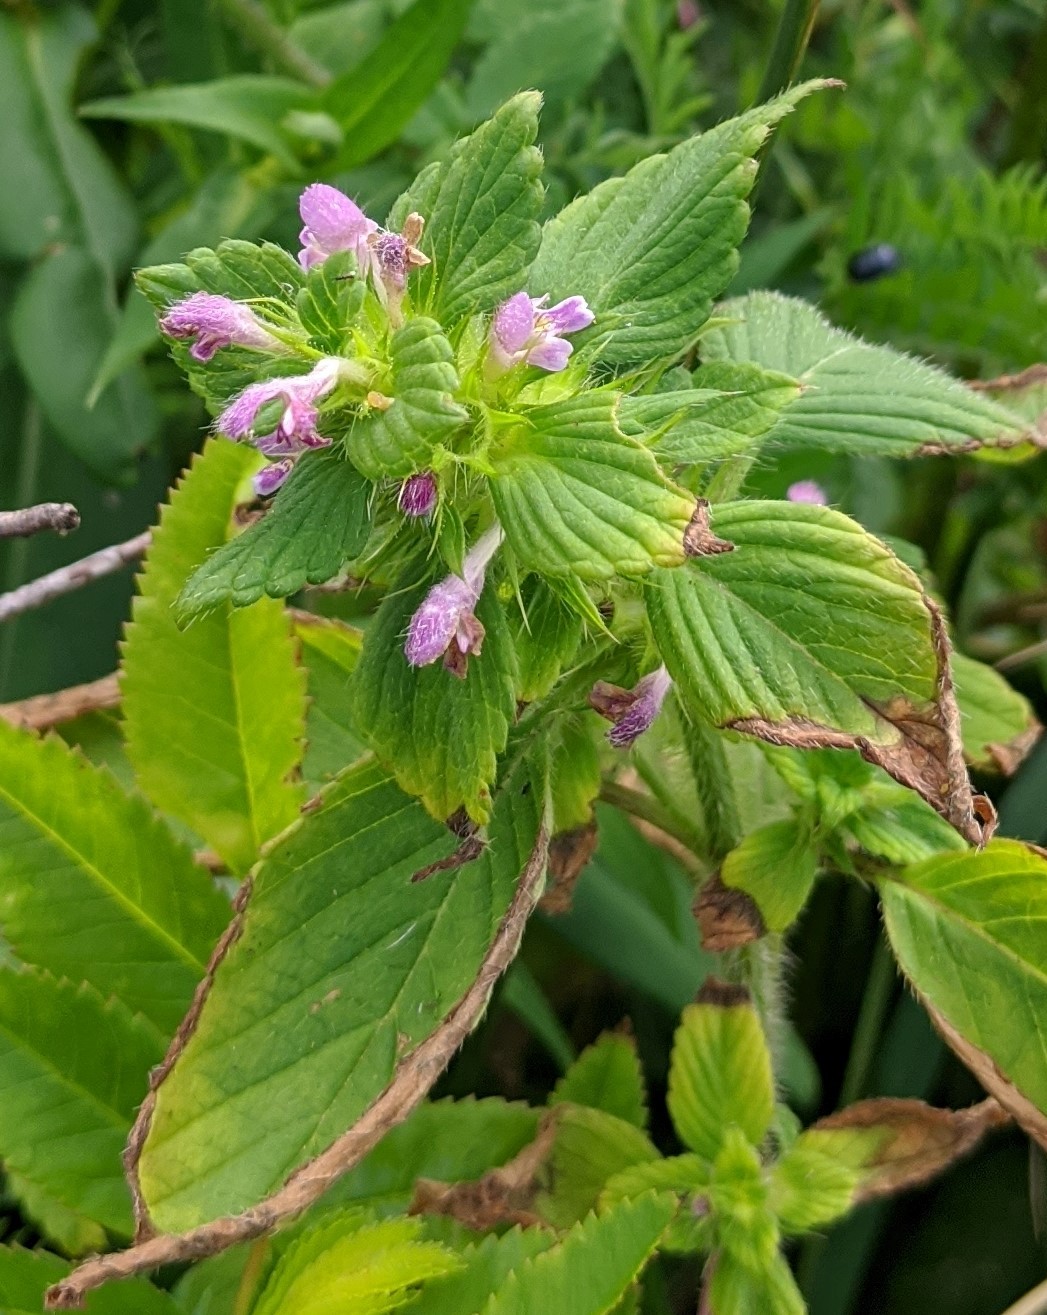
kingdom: Plantae
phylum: Tracheophyta
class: Magnoliopsida
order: Lamiales
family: Lamiaceae
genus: Galeopsis
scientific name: Galeopsis bifida
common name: Bifid hemp-nettle
